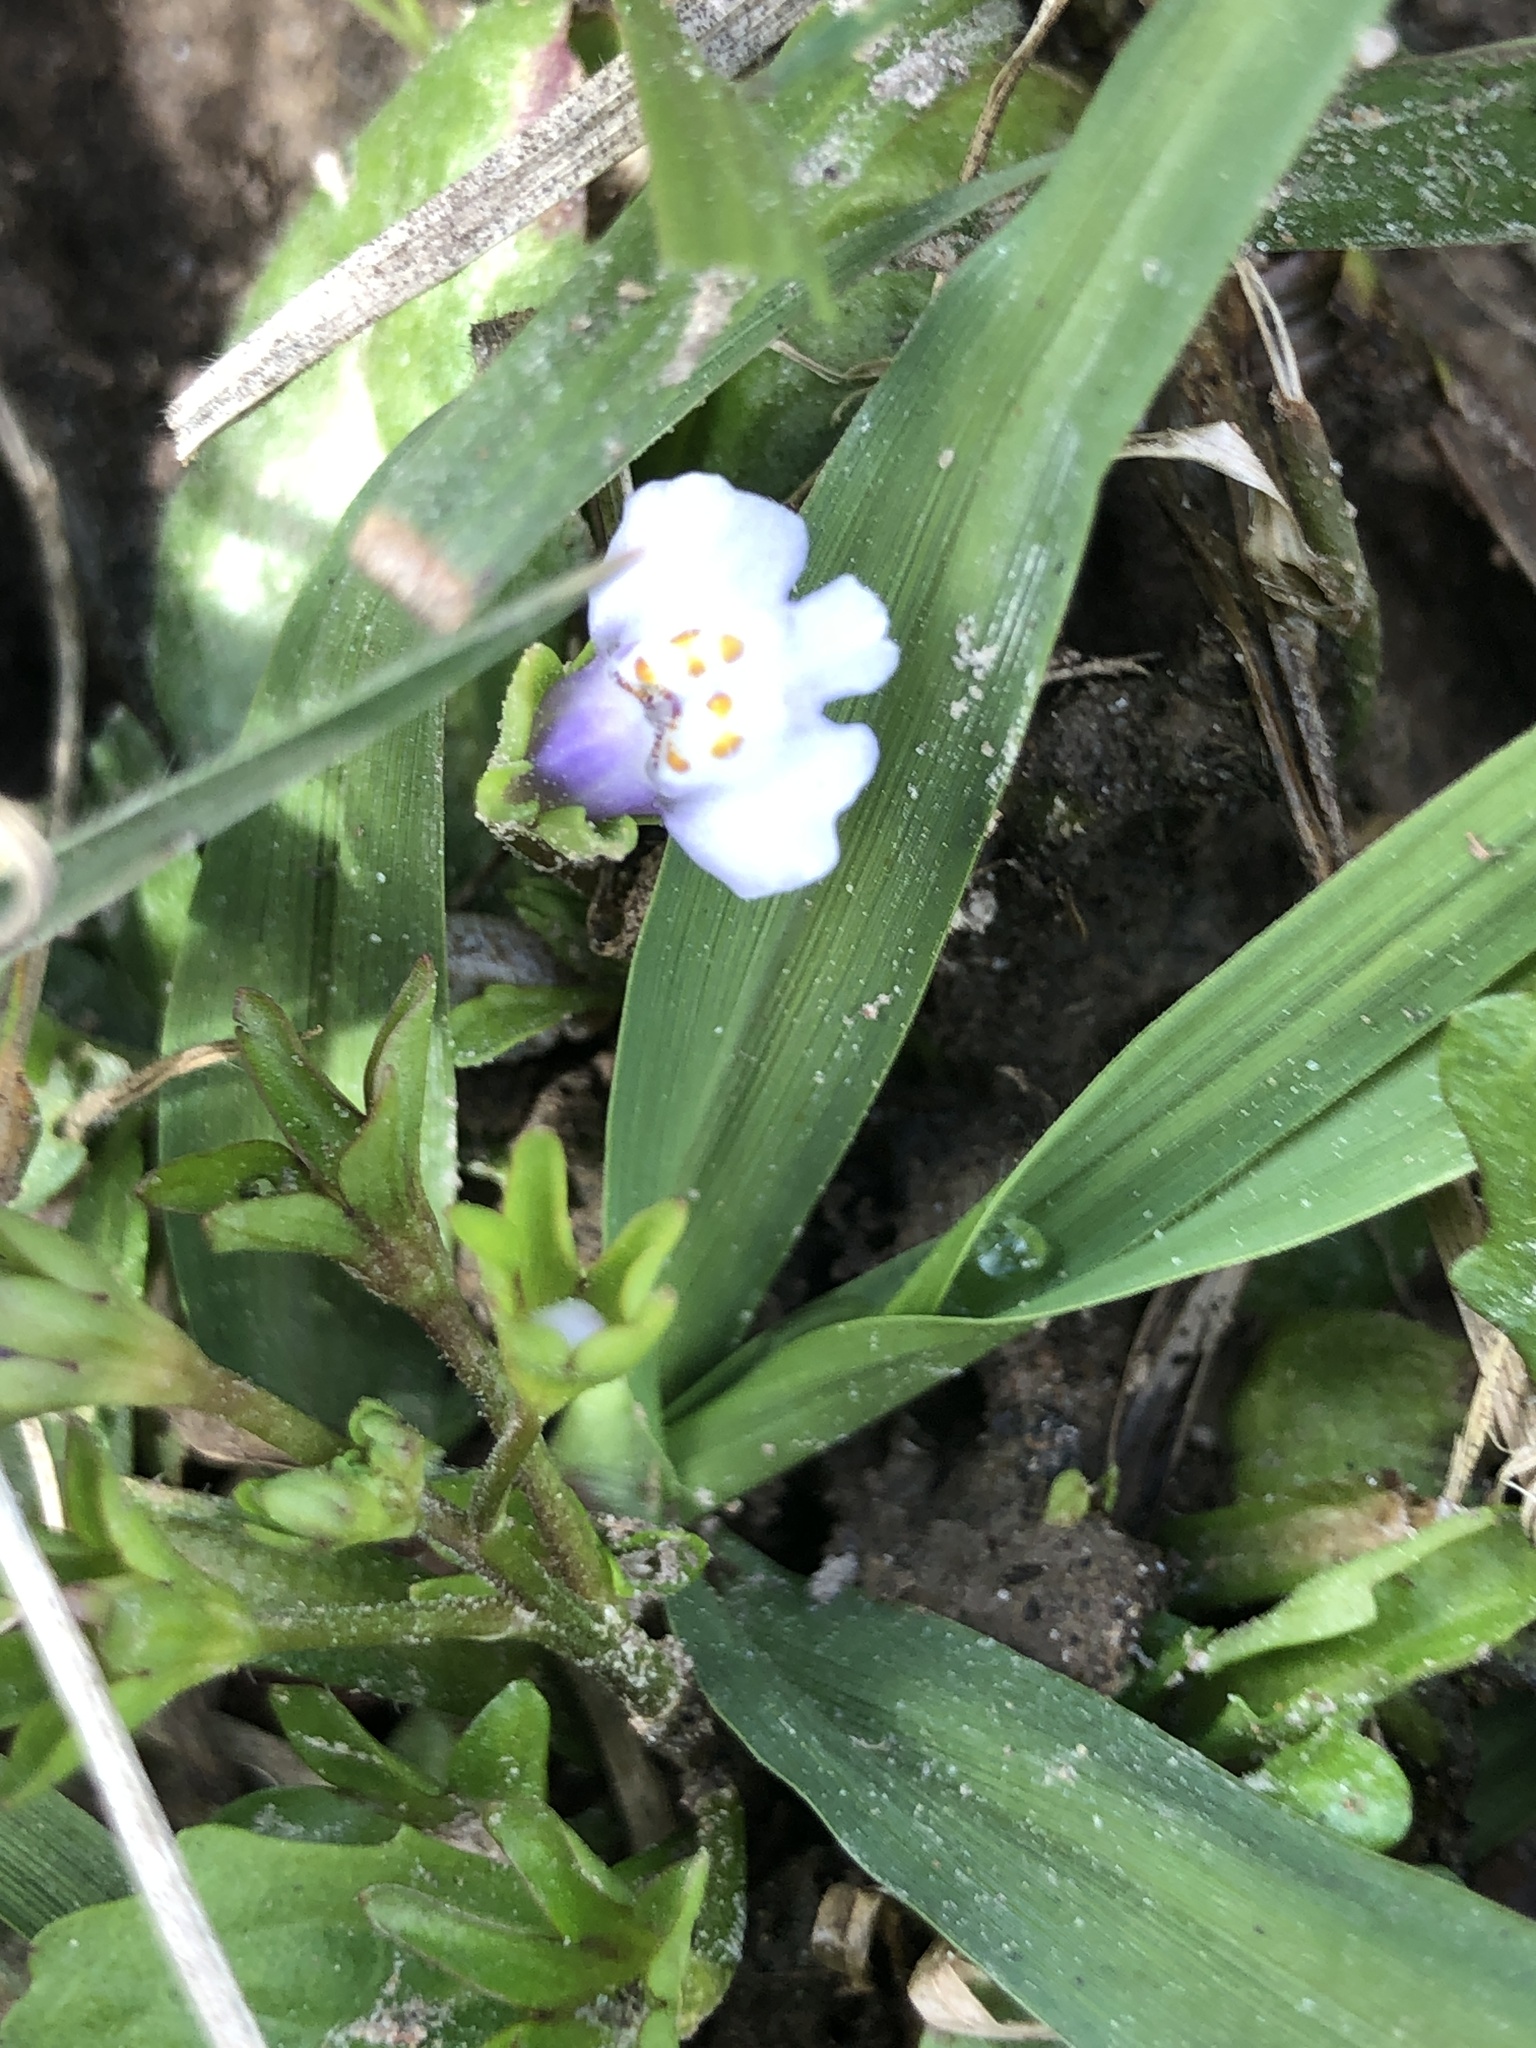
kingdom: Plantae
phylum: Tracheophyta
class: Magnoliopsida
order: Lamiales
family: Mazaceae
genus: Mazus
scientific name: Mazus pumilus
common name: Japanese mazus
